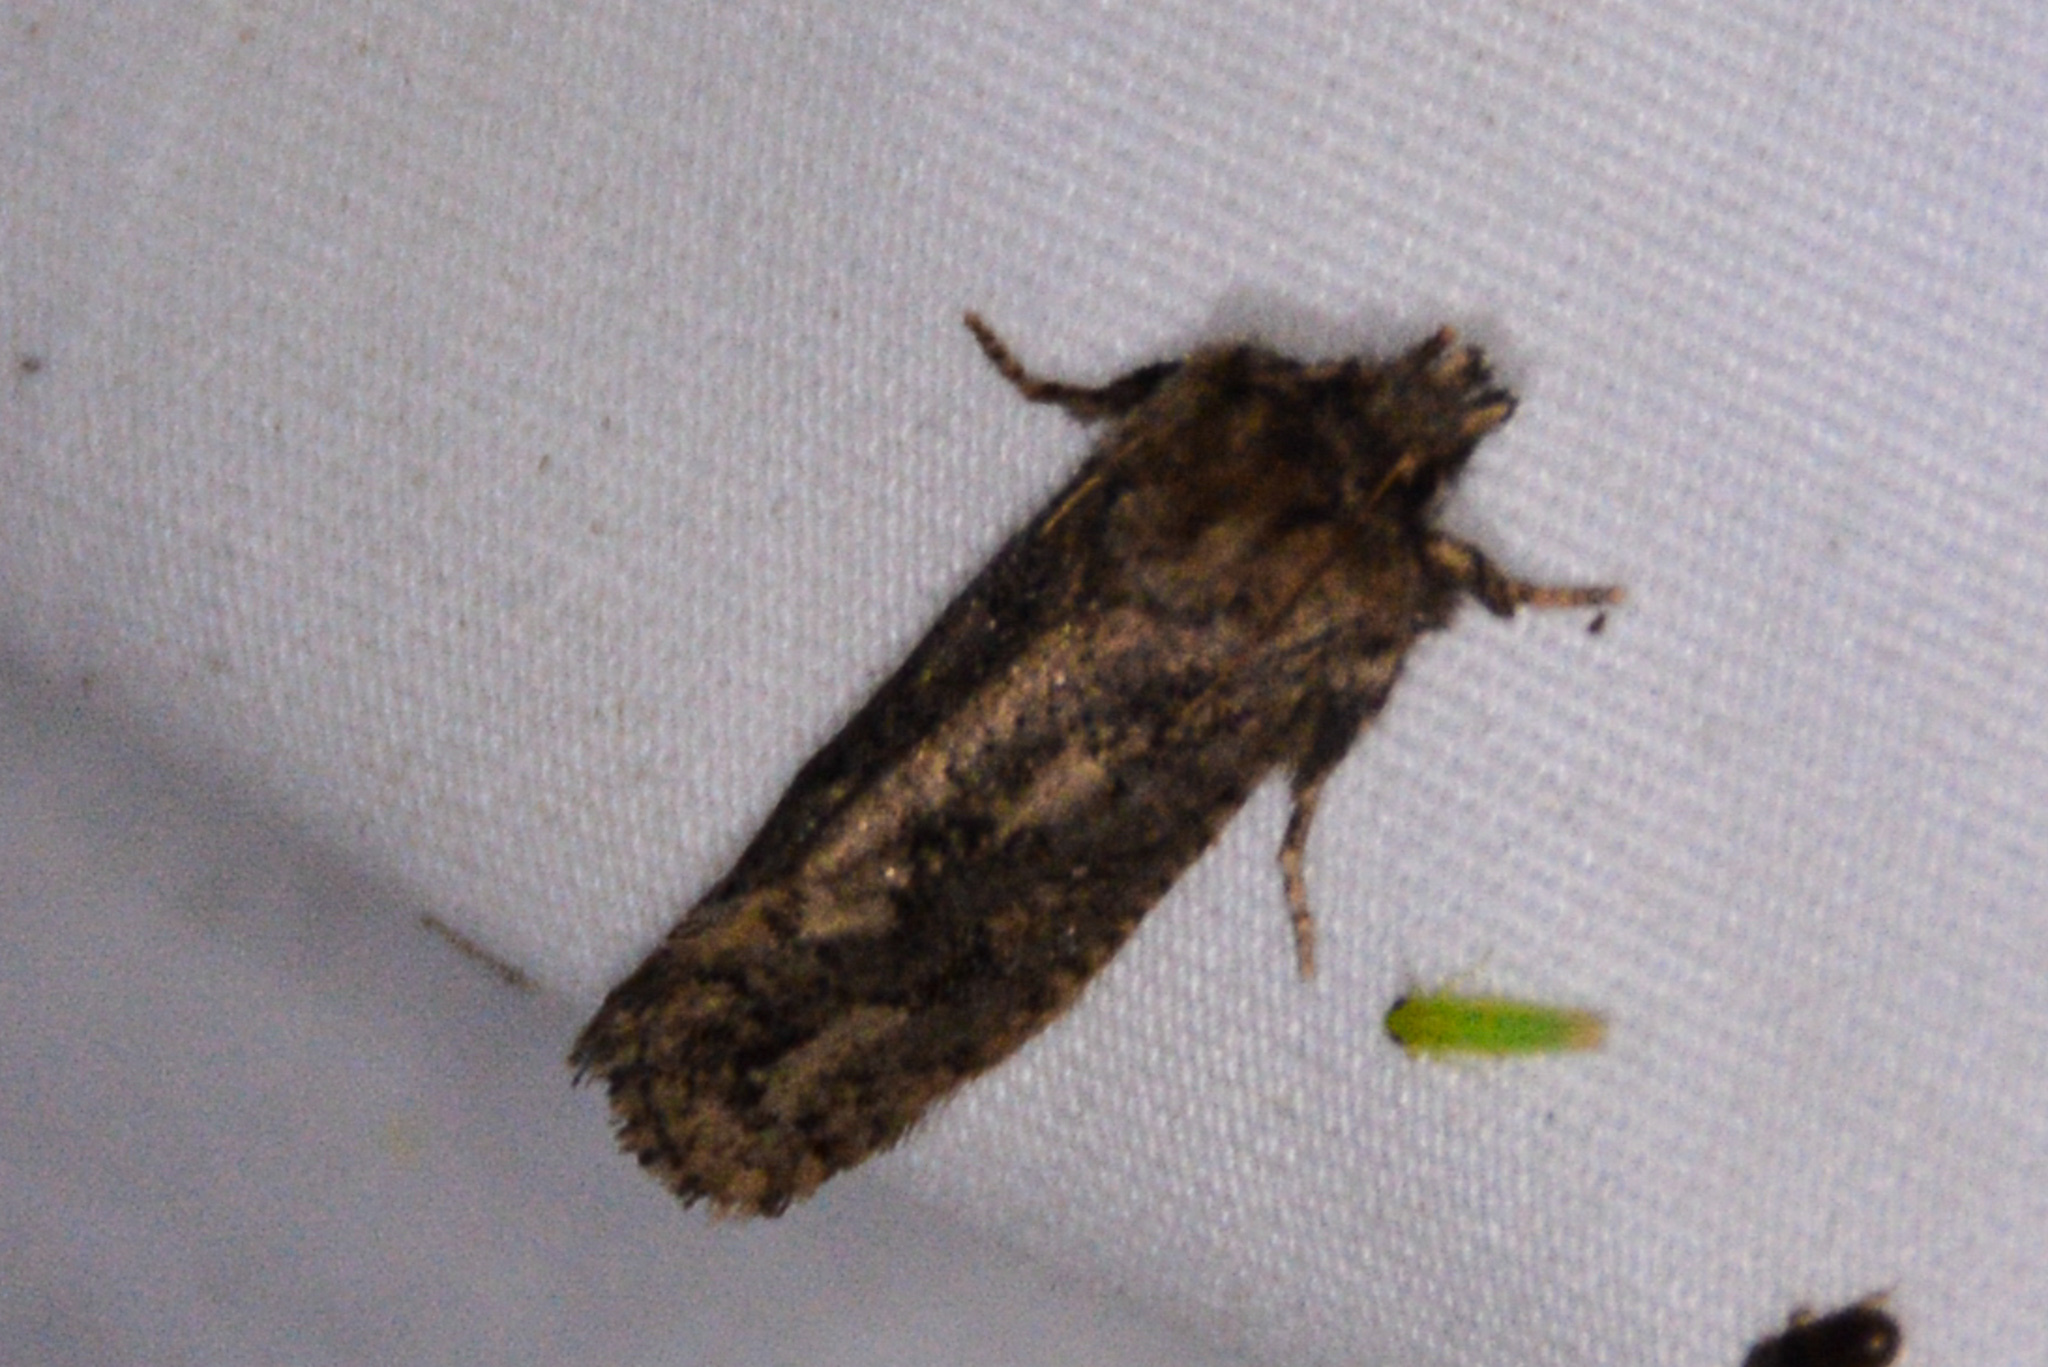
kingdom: Animalia
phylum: Arthropoda
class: Insecta
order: Lepidoptera
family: Tineidae
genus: Acrolophus
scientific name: Acrolophus arcanella
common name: Arcane grass tubeworm moth
